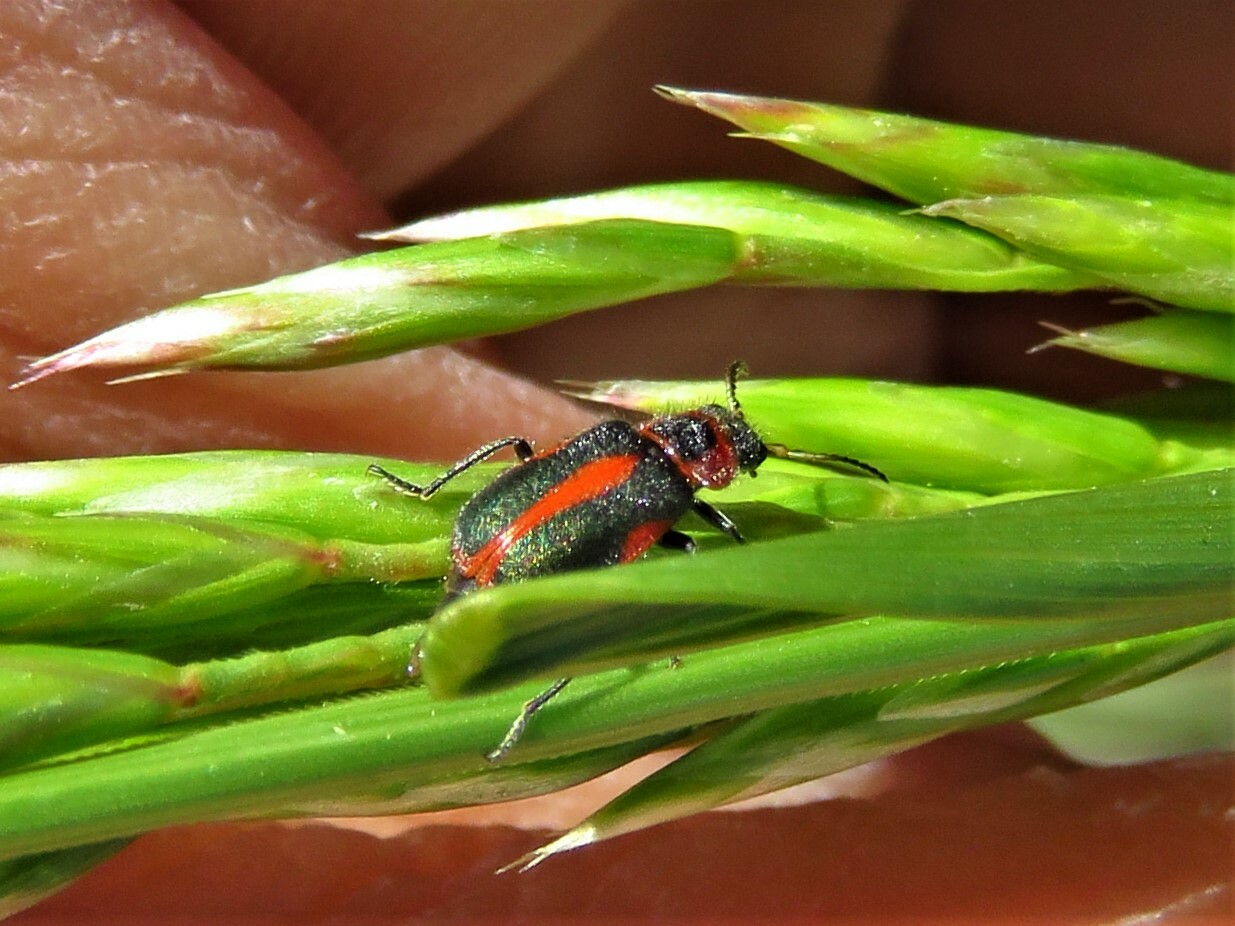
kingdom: Animalia
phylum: Arthropoda
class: Insecta
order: Coleoptera
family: Melyridae
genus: Collops
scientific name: Collops vittatus
